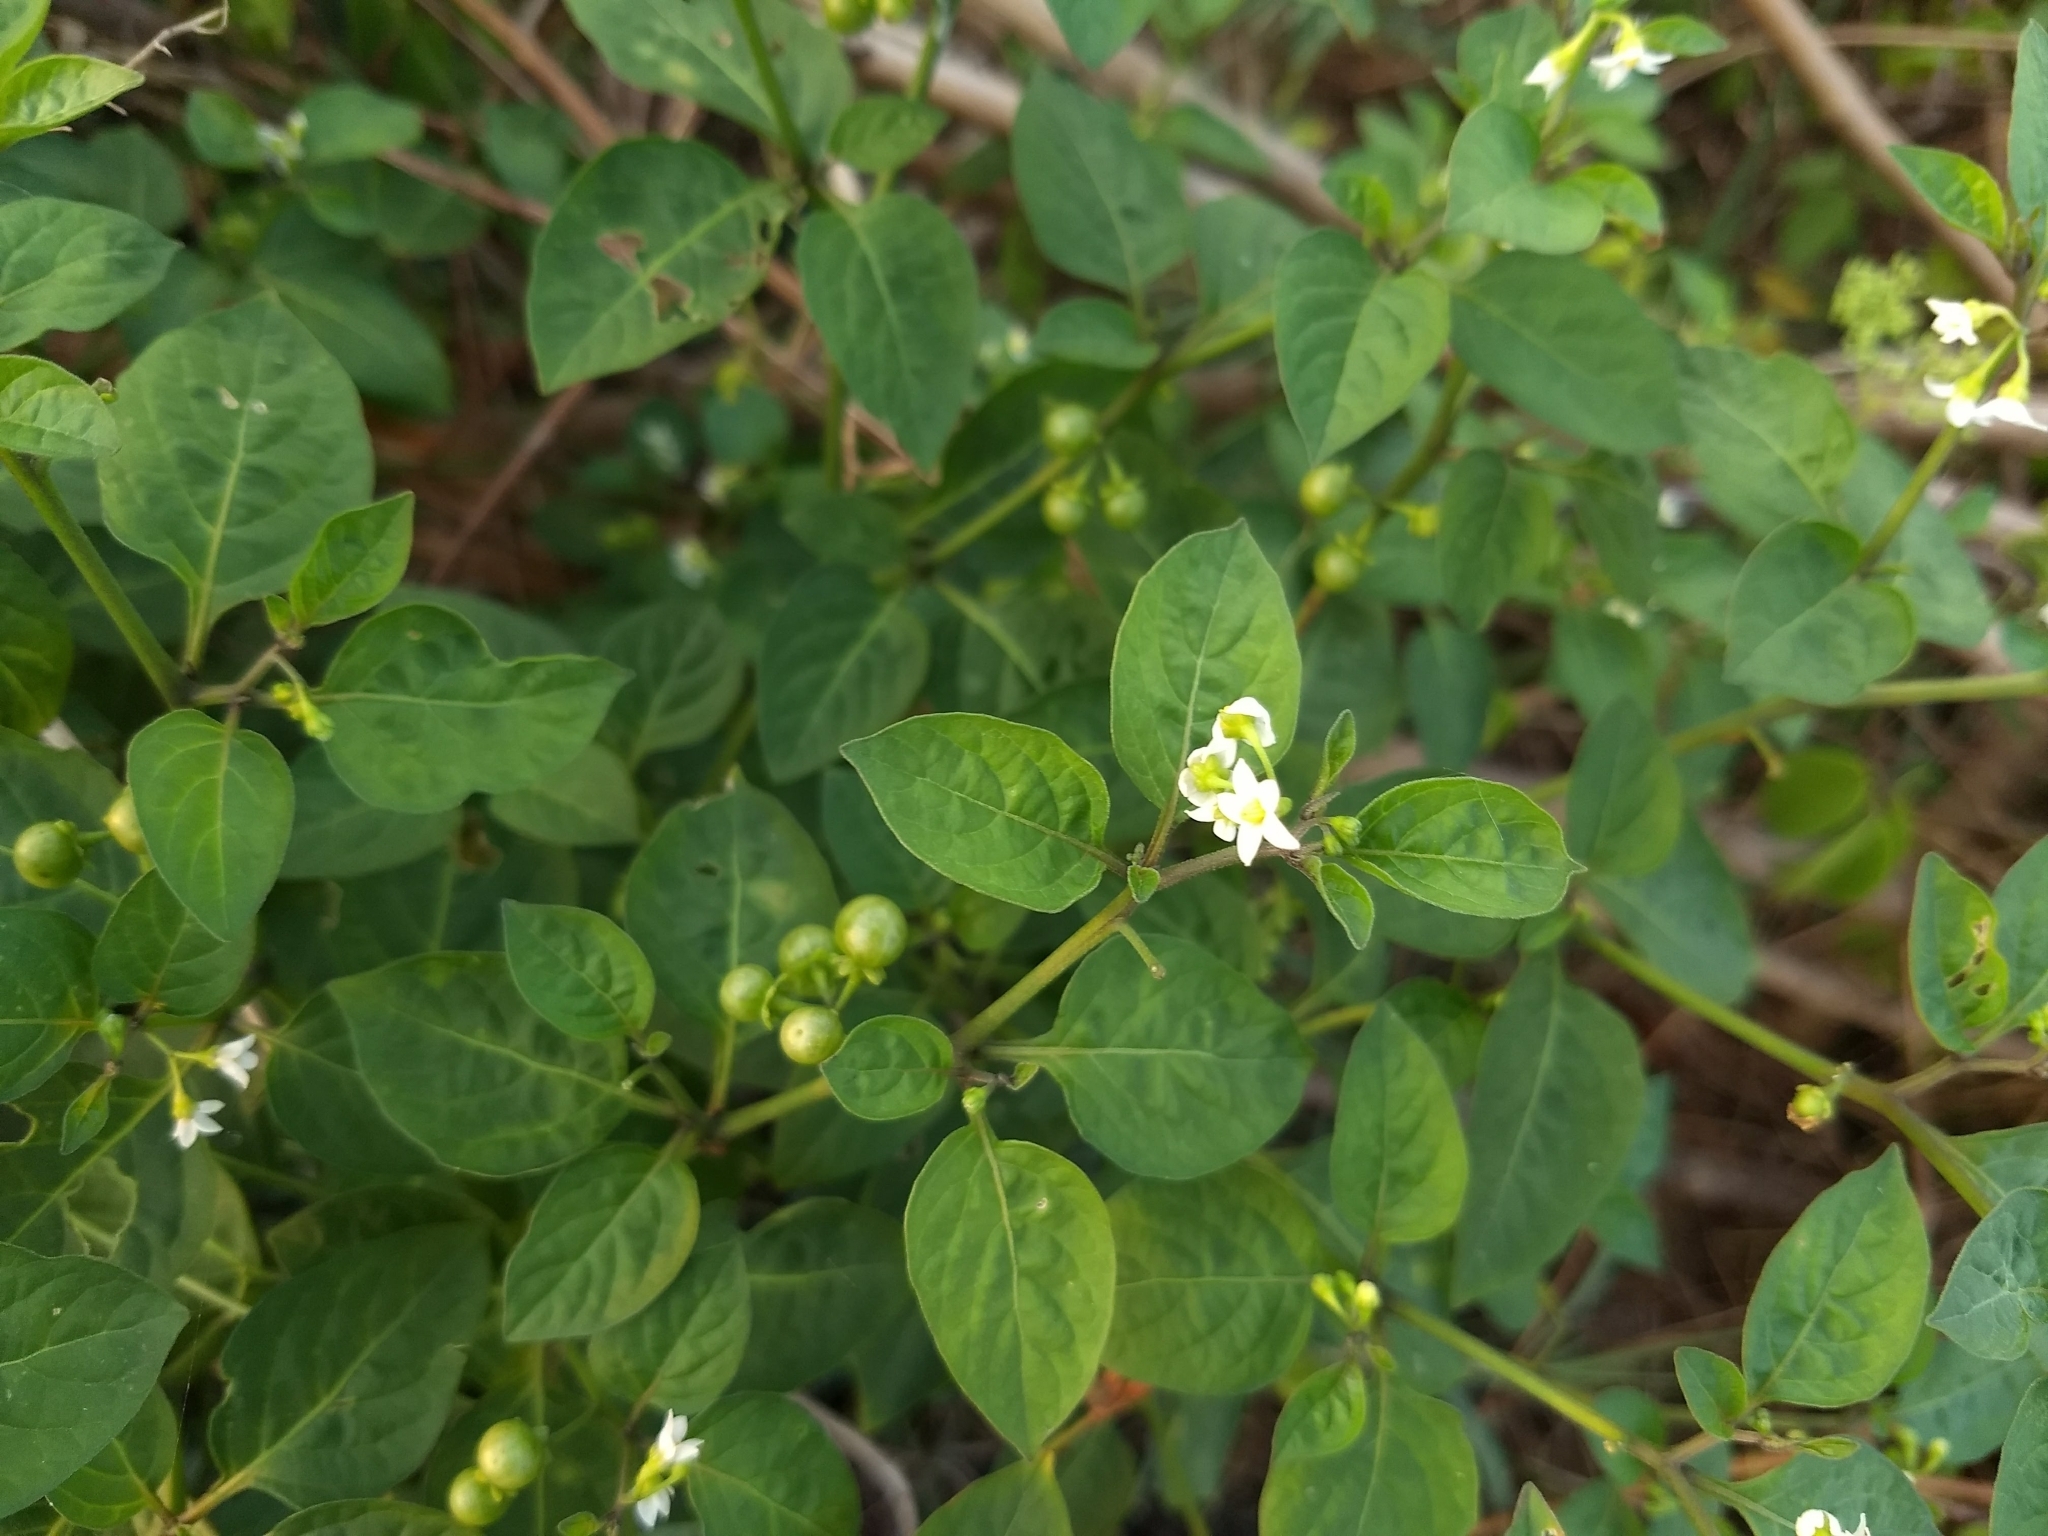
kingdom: Plantae
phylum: Tracheophyta
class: Magnoliopsida
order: Solanales
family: Solanaceae
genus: Solanum
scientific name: Solanum americanum
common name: American black nightshade
